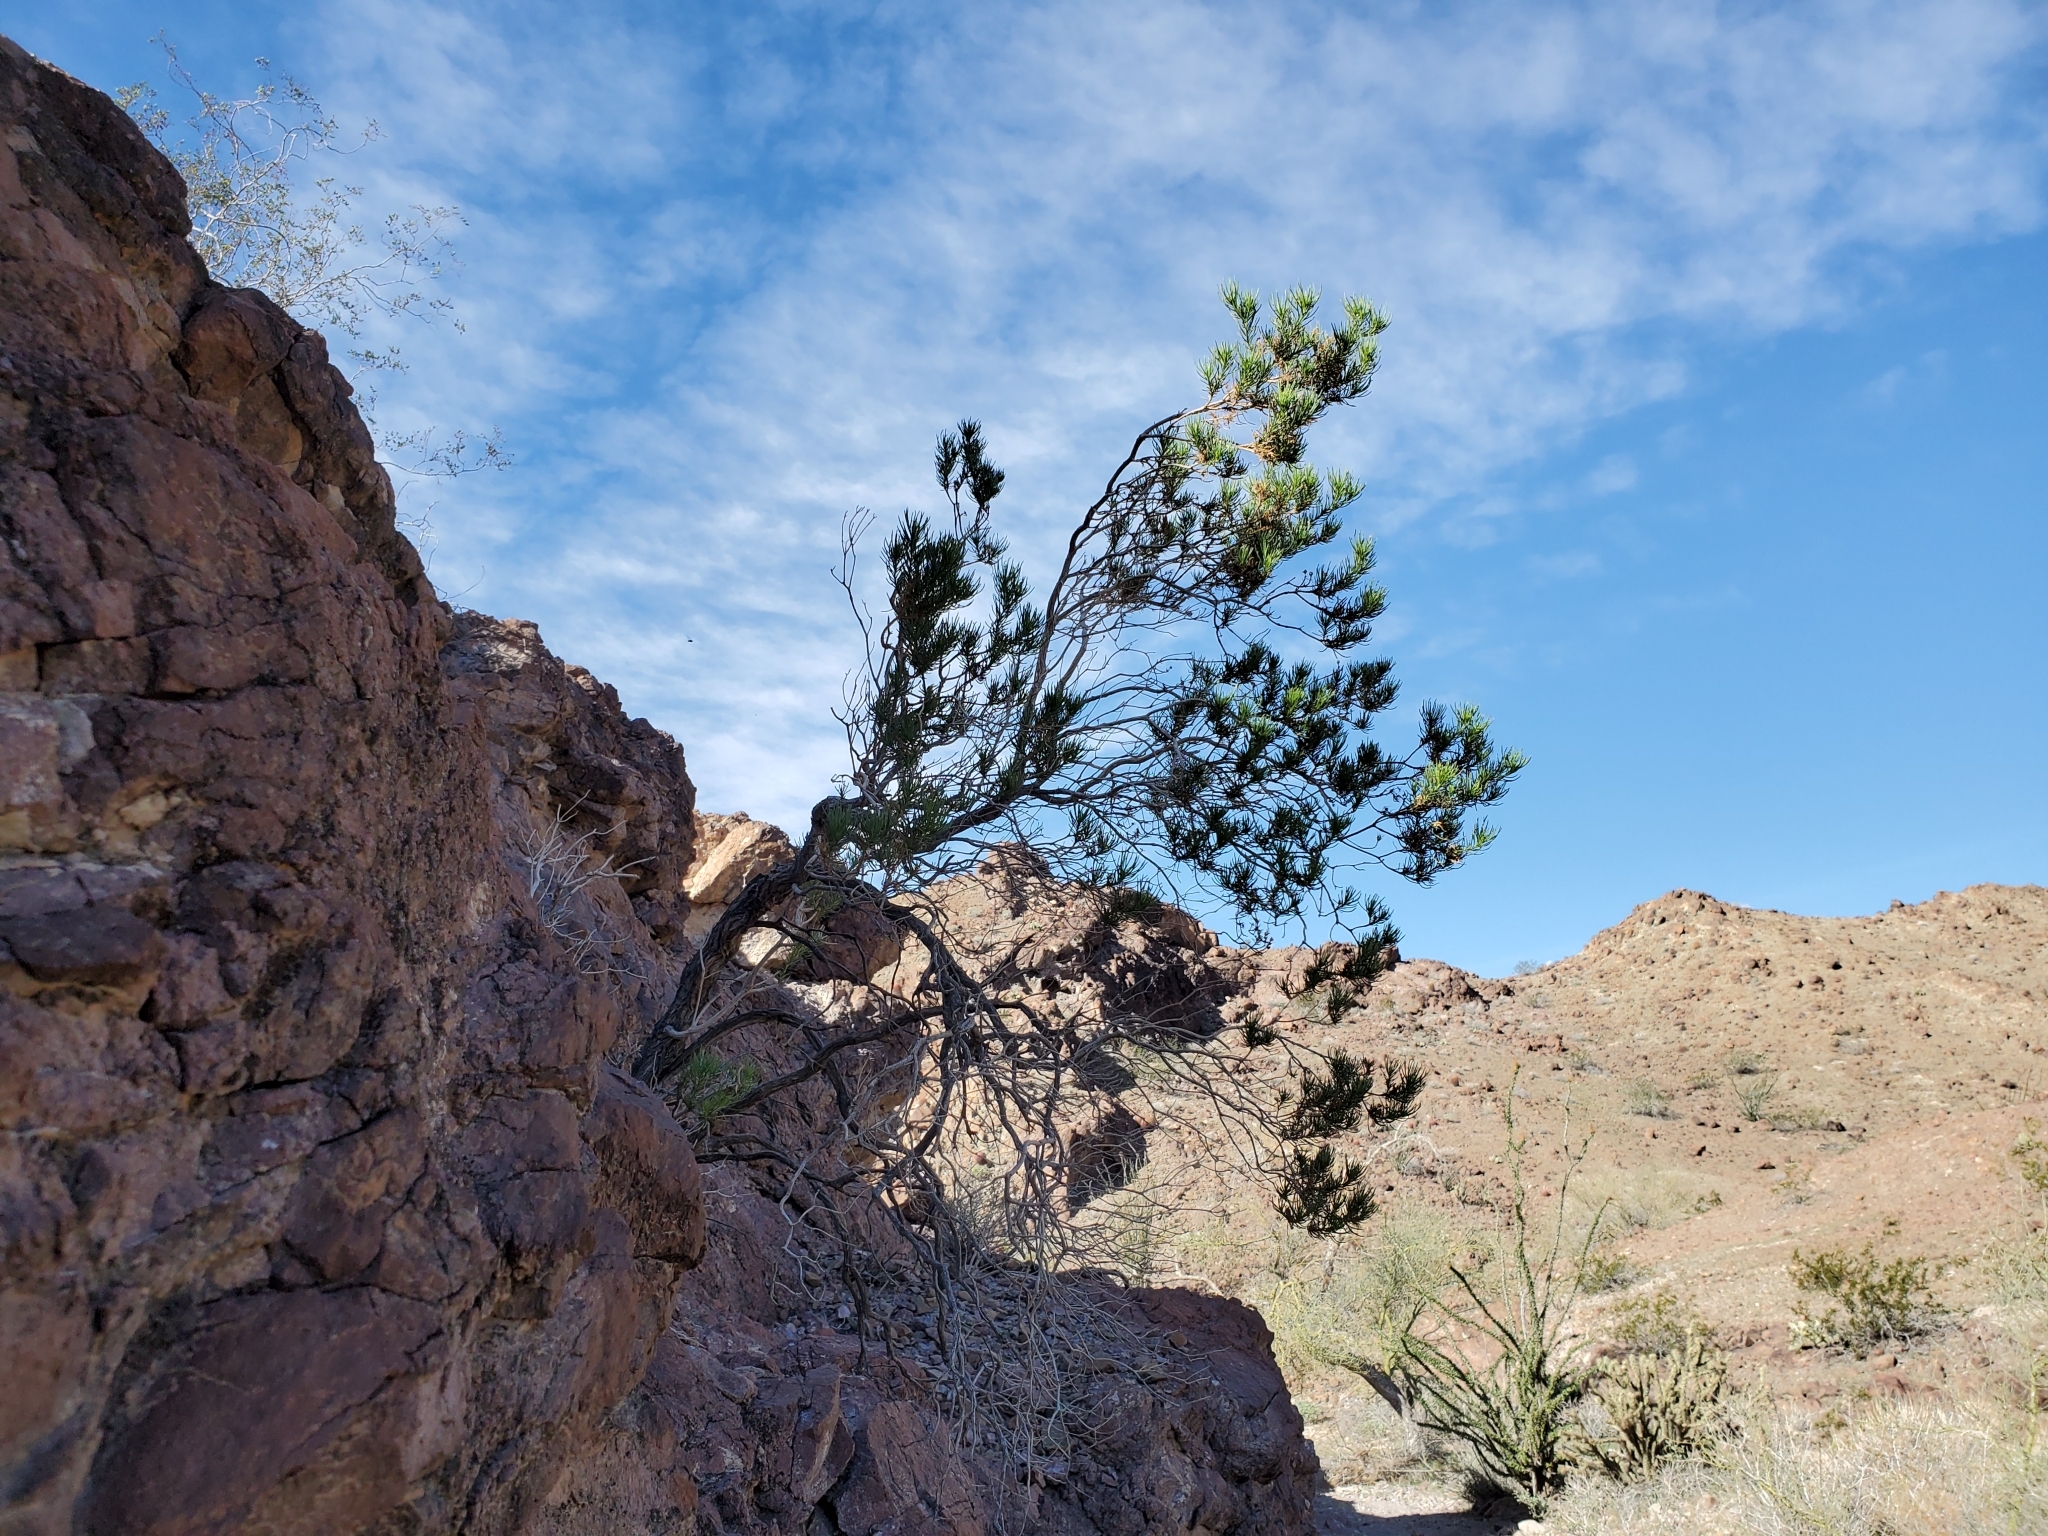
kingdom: Plantae
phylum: Tracheophyta
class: Magnoliopsida
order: Asterales
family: Asteraceae
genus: Peucephyllum
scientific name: Peucephyllum schottii
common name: Pygmy-cedar
